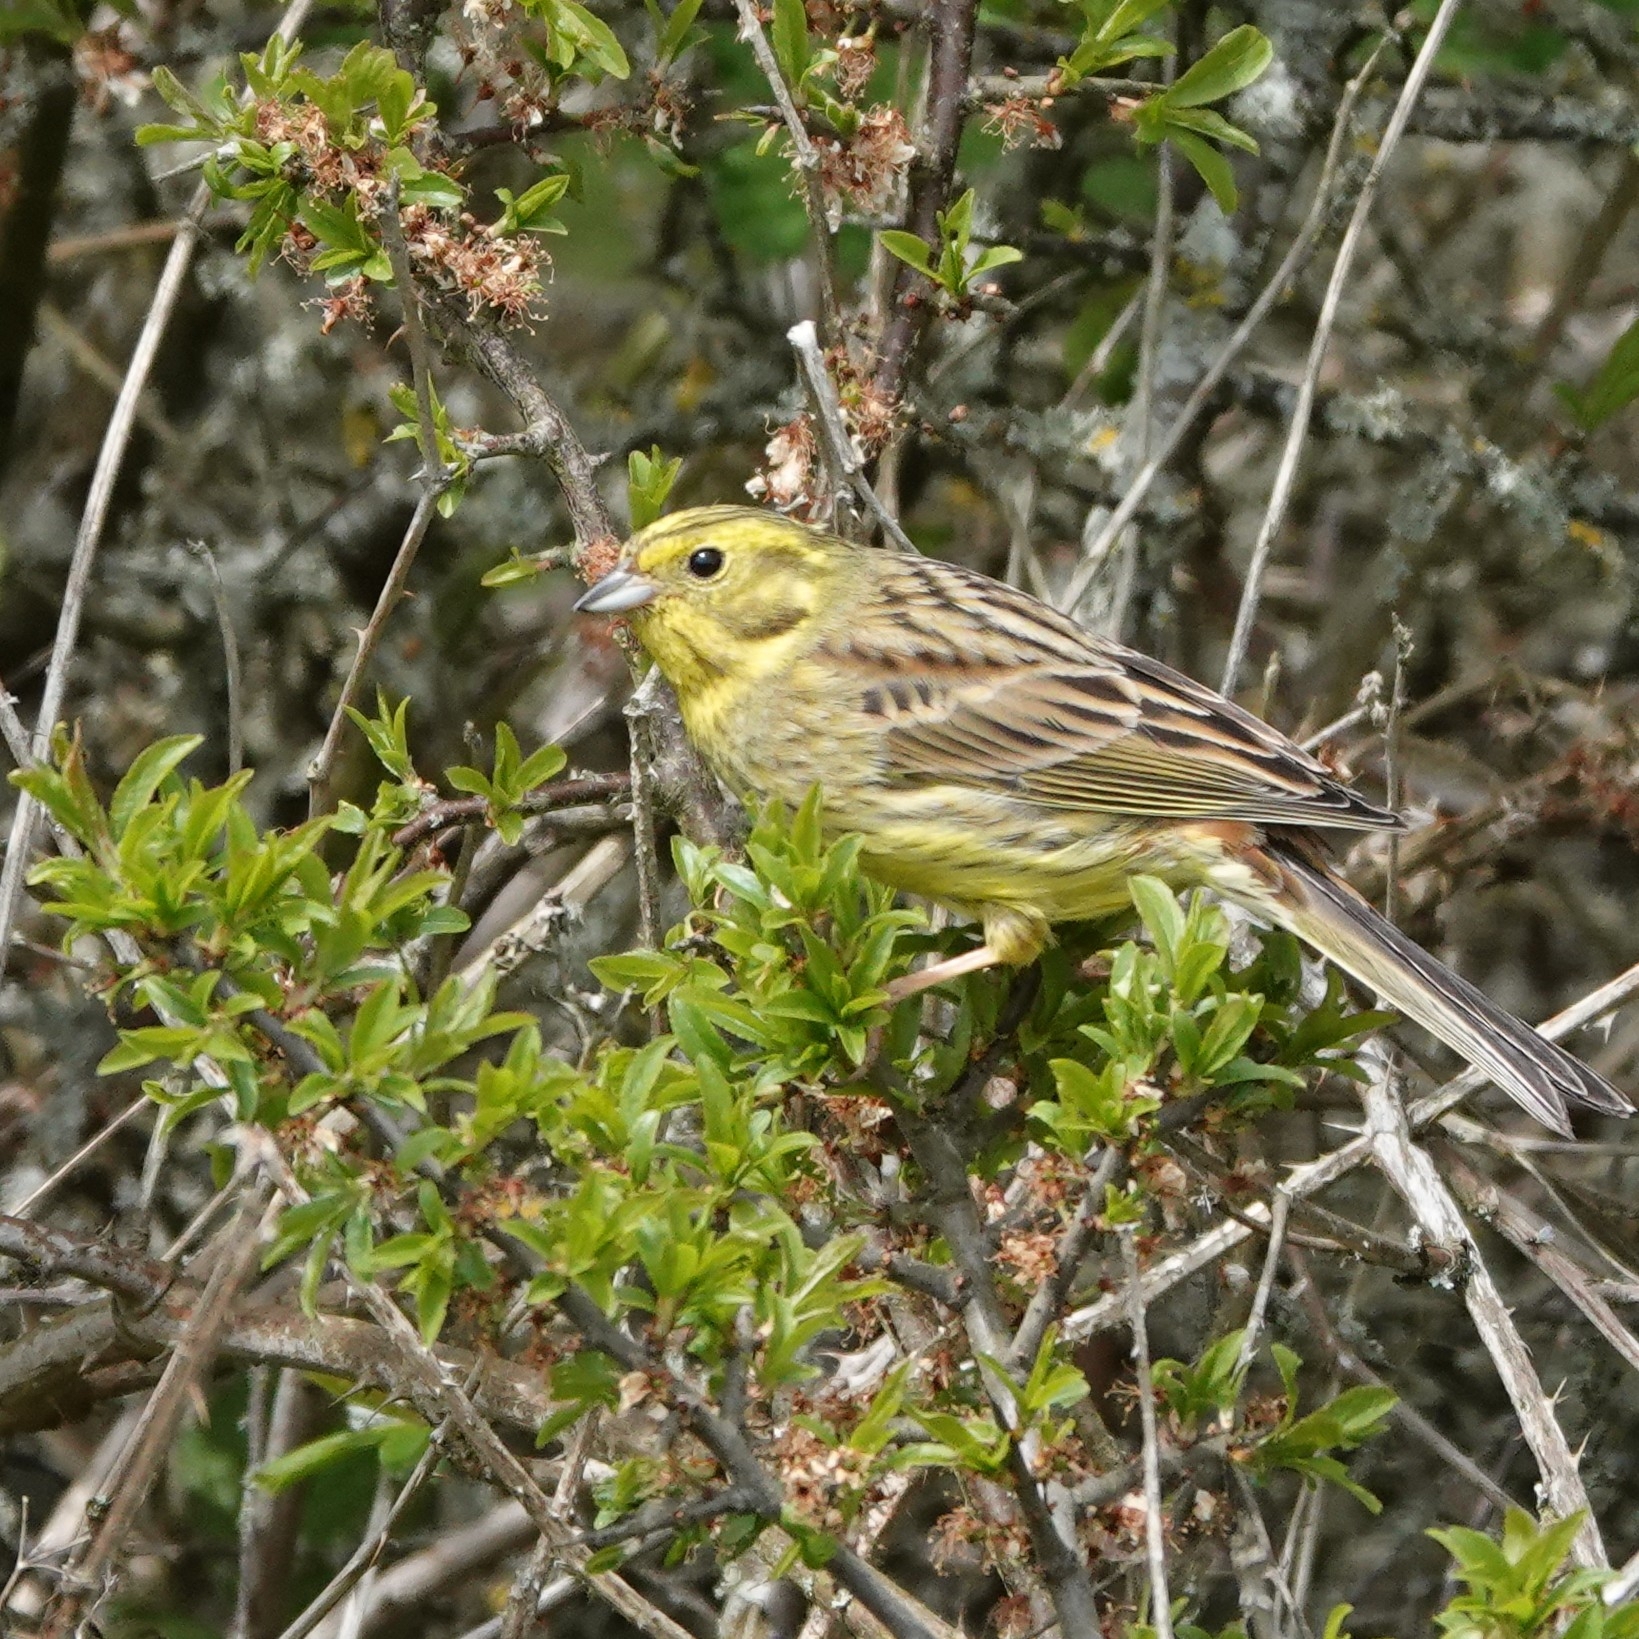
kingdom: Animalia
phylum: Chordata
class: Aves
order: Passeriformes
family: Emberizidae
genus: Emberiza
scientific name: Emberiza citrinella
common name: Yellowhammer
